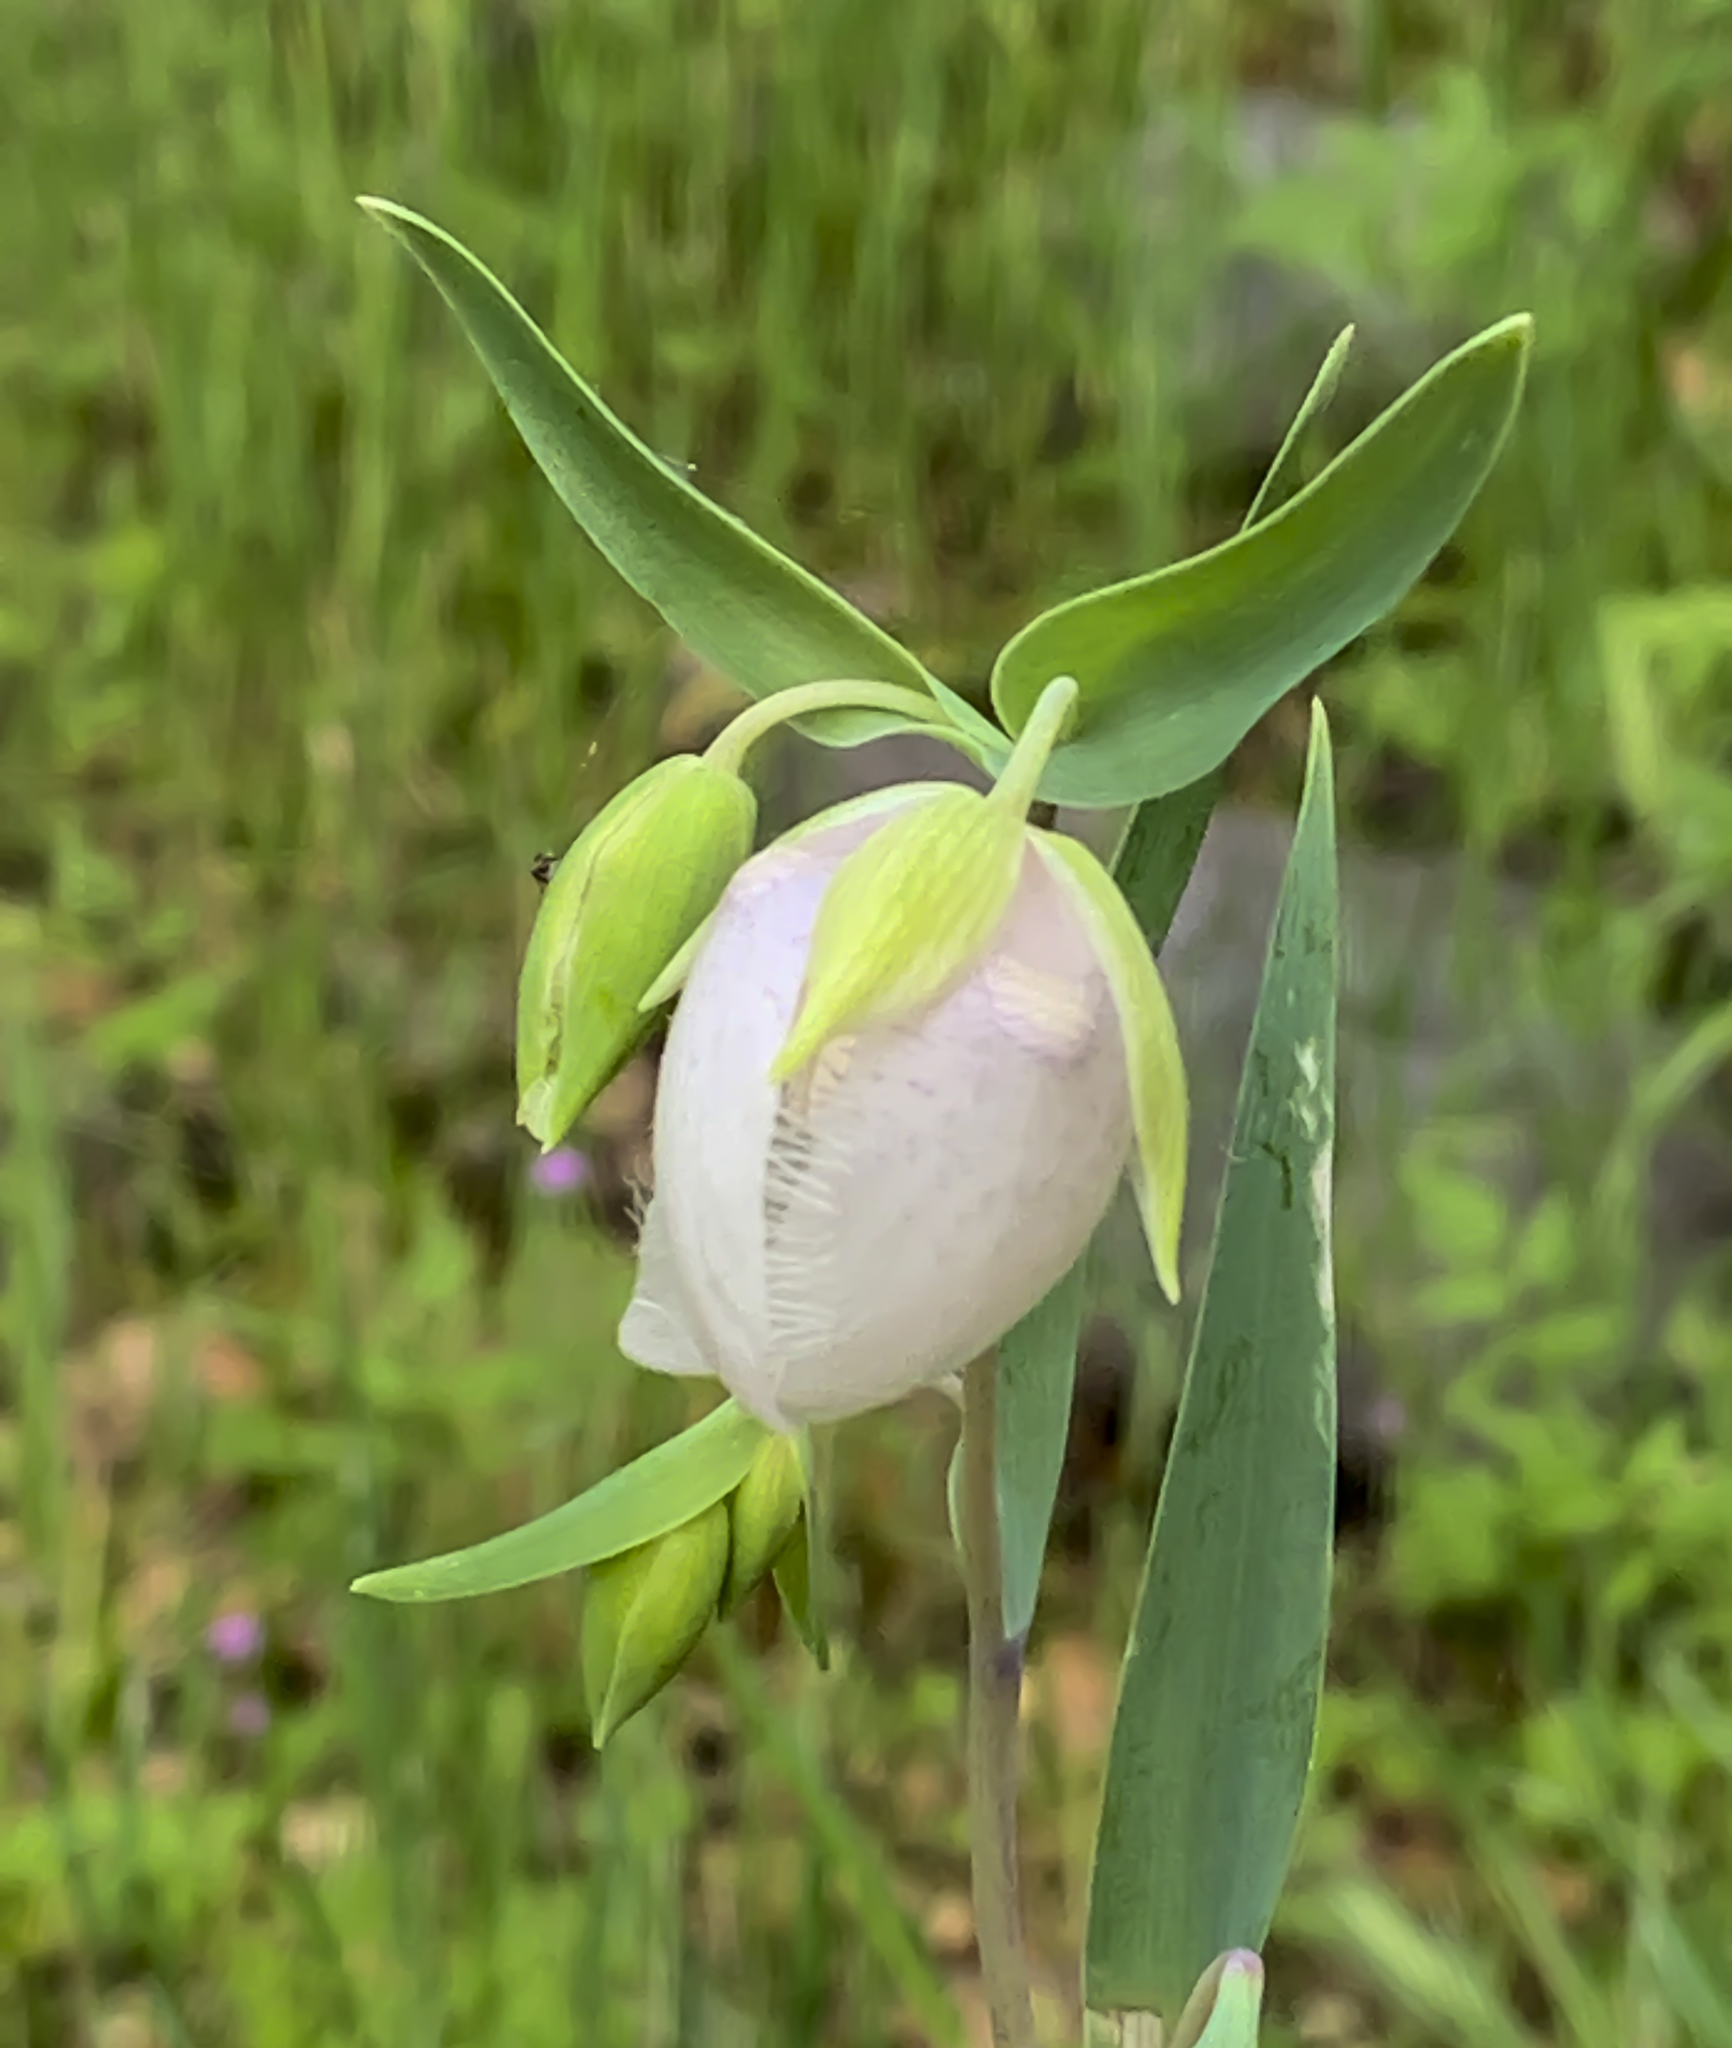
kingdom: Plantae
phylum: Tracheophyta
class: Liliopsida
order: Liliales
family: Liliaceae
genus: Calochortus
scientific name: Calochortus albus
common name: Fairy-lantern
